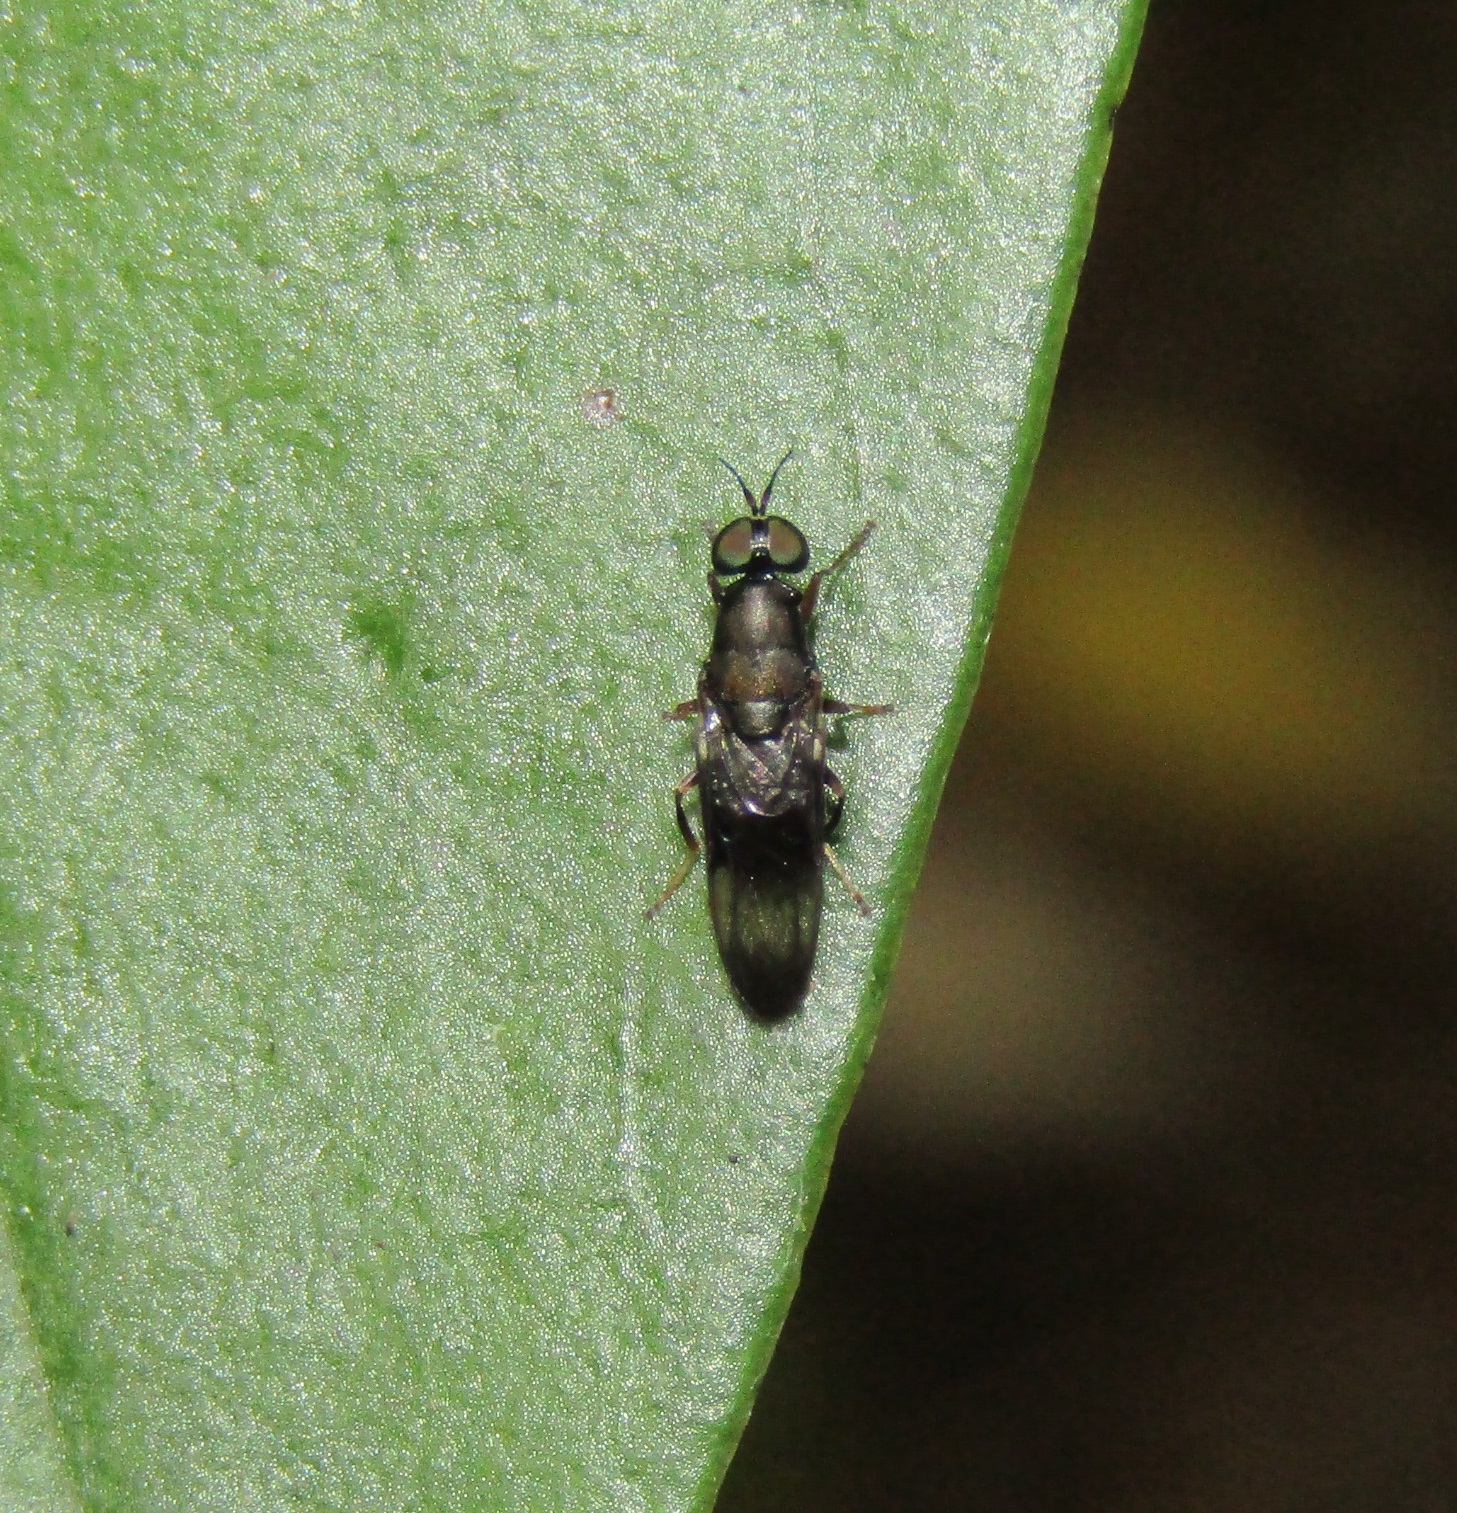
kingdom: Animalia
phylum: Arthropoda
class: Insecta
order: Diptera
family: Stratiomyidae
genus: Dysbiota
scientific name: Dysbiota peregrina
